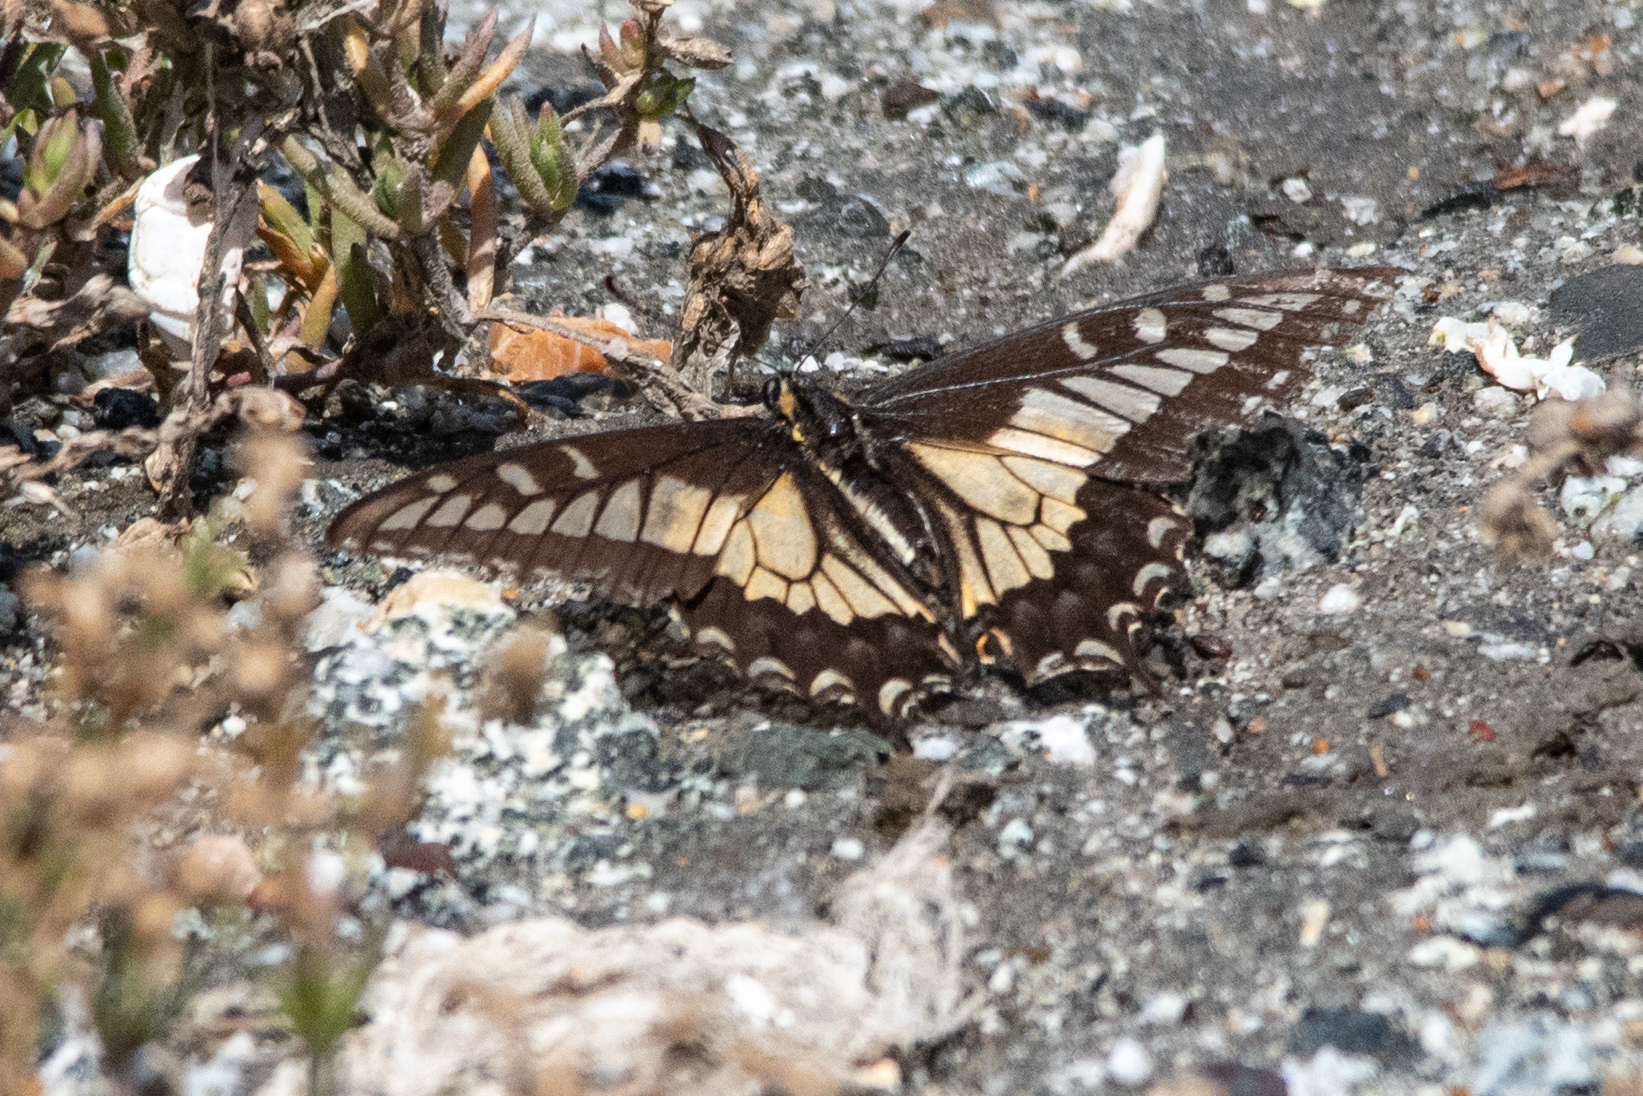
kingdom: Animalia
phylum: Arthropoda
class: Insecta
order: Lepidoptera
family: Papilionidae
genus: Papilio
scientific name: Papilio zelicaon
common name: Anise swallowtail
